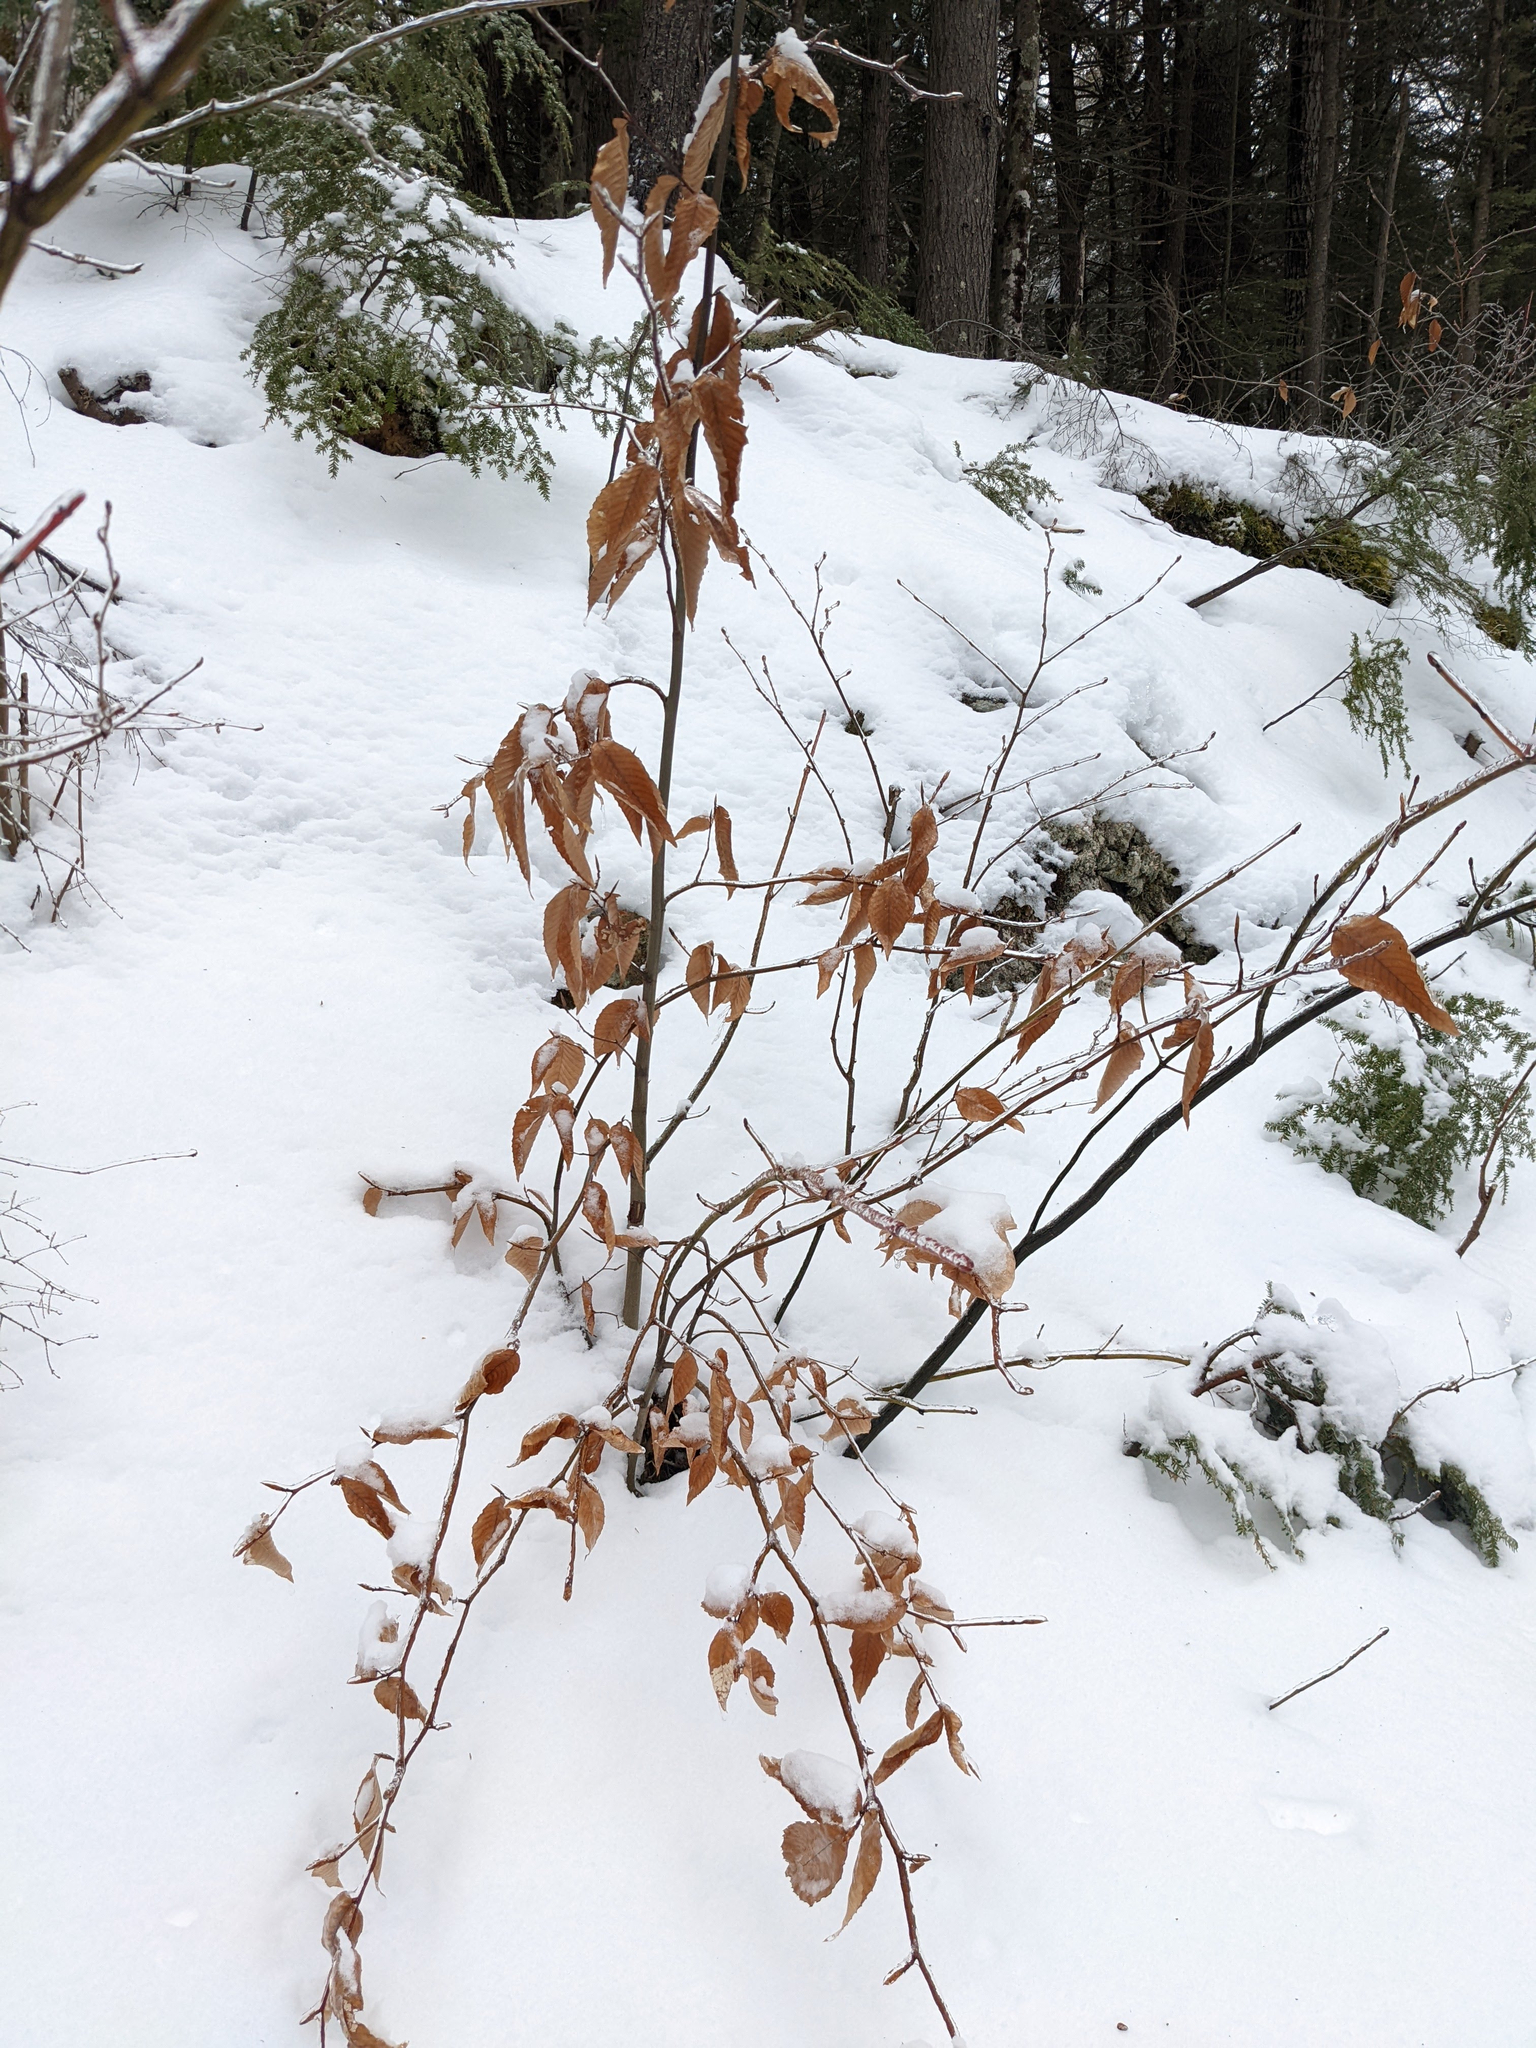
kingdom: Plantae
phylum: Tracheophyta
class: Magnoliopsida
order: Fagales
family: Fagaceae
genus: Fagus
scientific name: Fagus grandifolia
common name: American beech
